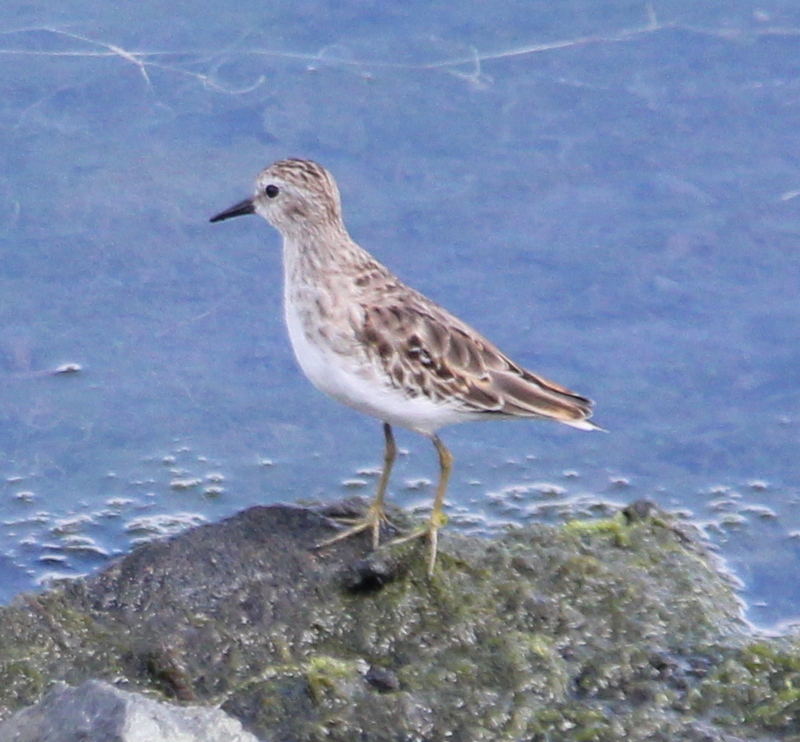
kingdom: Animalia
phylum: Chordata
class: Aves
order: Charadriiformes
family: Scolopacidae
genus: Calidris
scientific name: Calidris minutilla
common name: Least sandpiper
